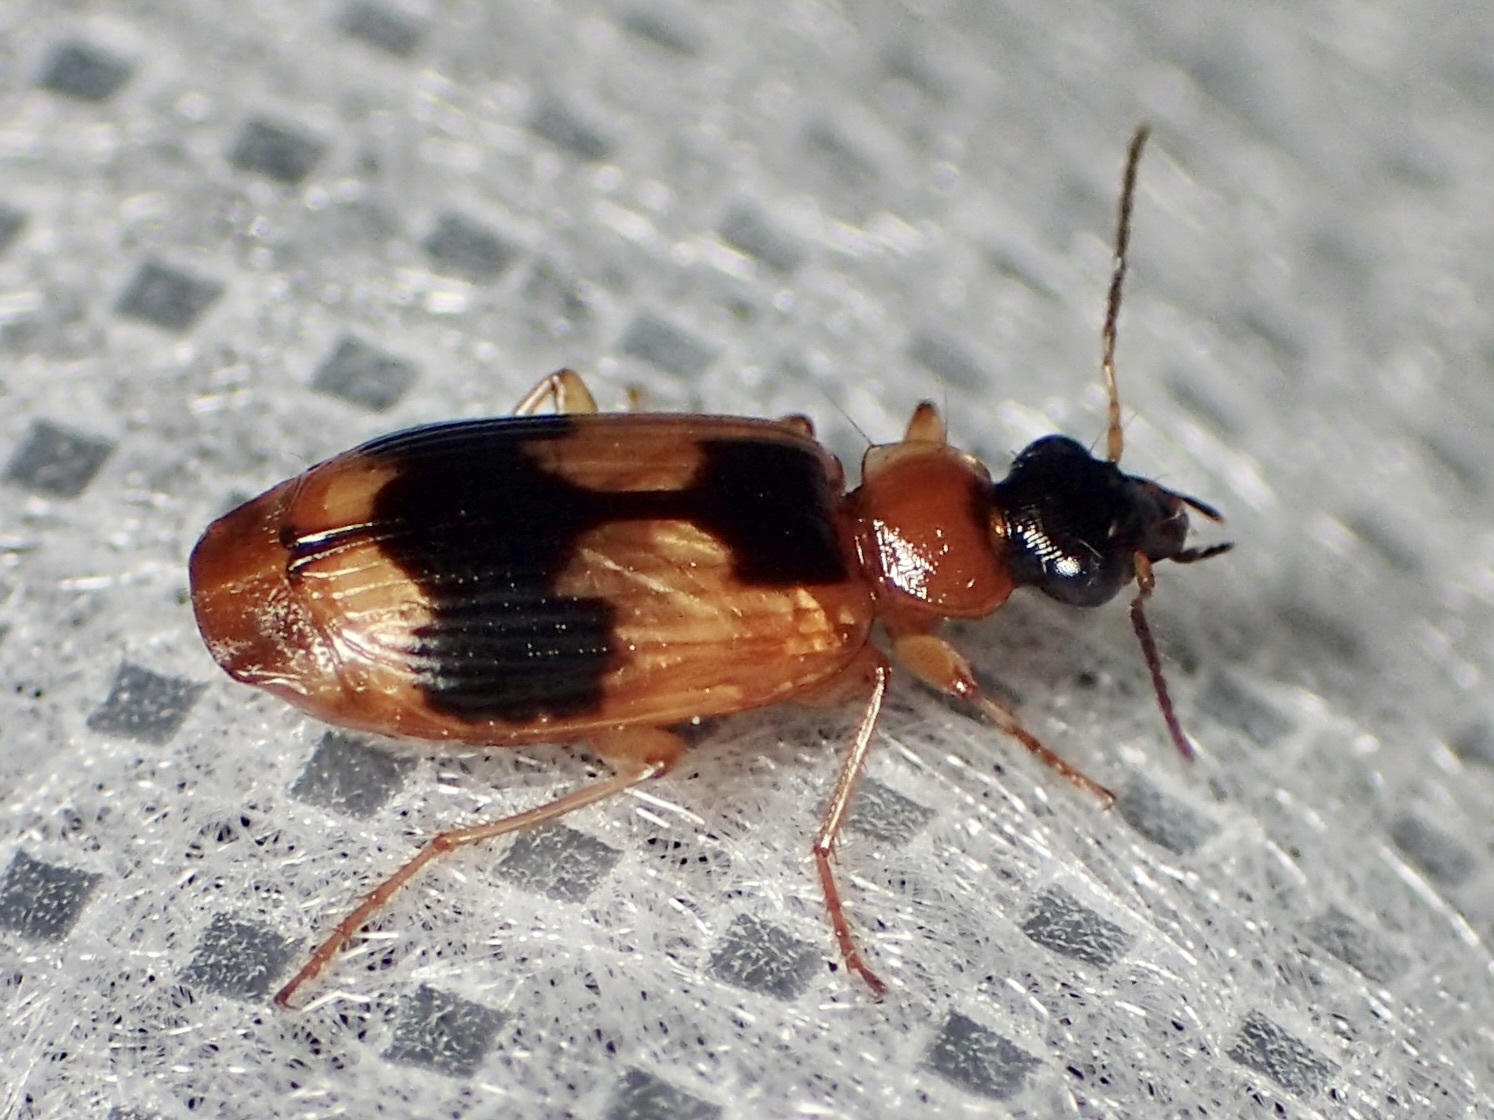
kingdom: Animalia
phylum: Arthropoda
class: Insecta
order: Coleoptera
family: Carabidae
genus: Lebia
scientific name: Lebia analis
